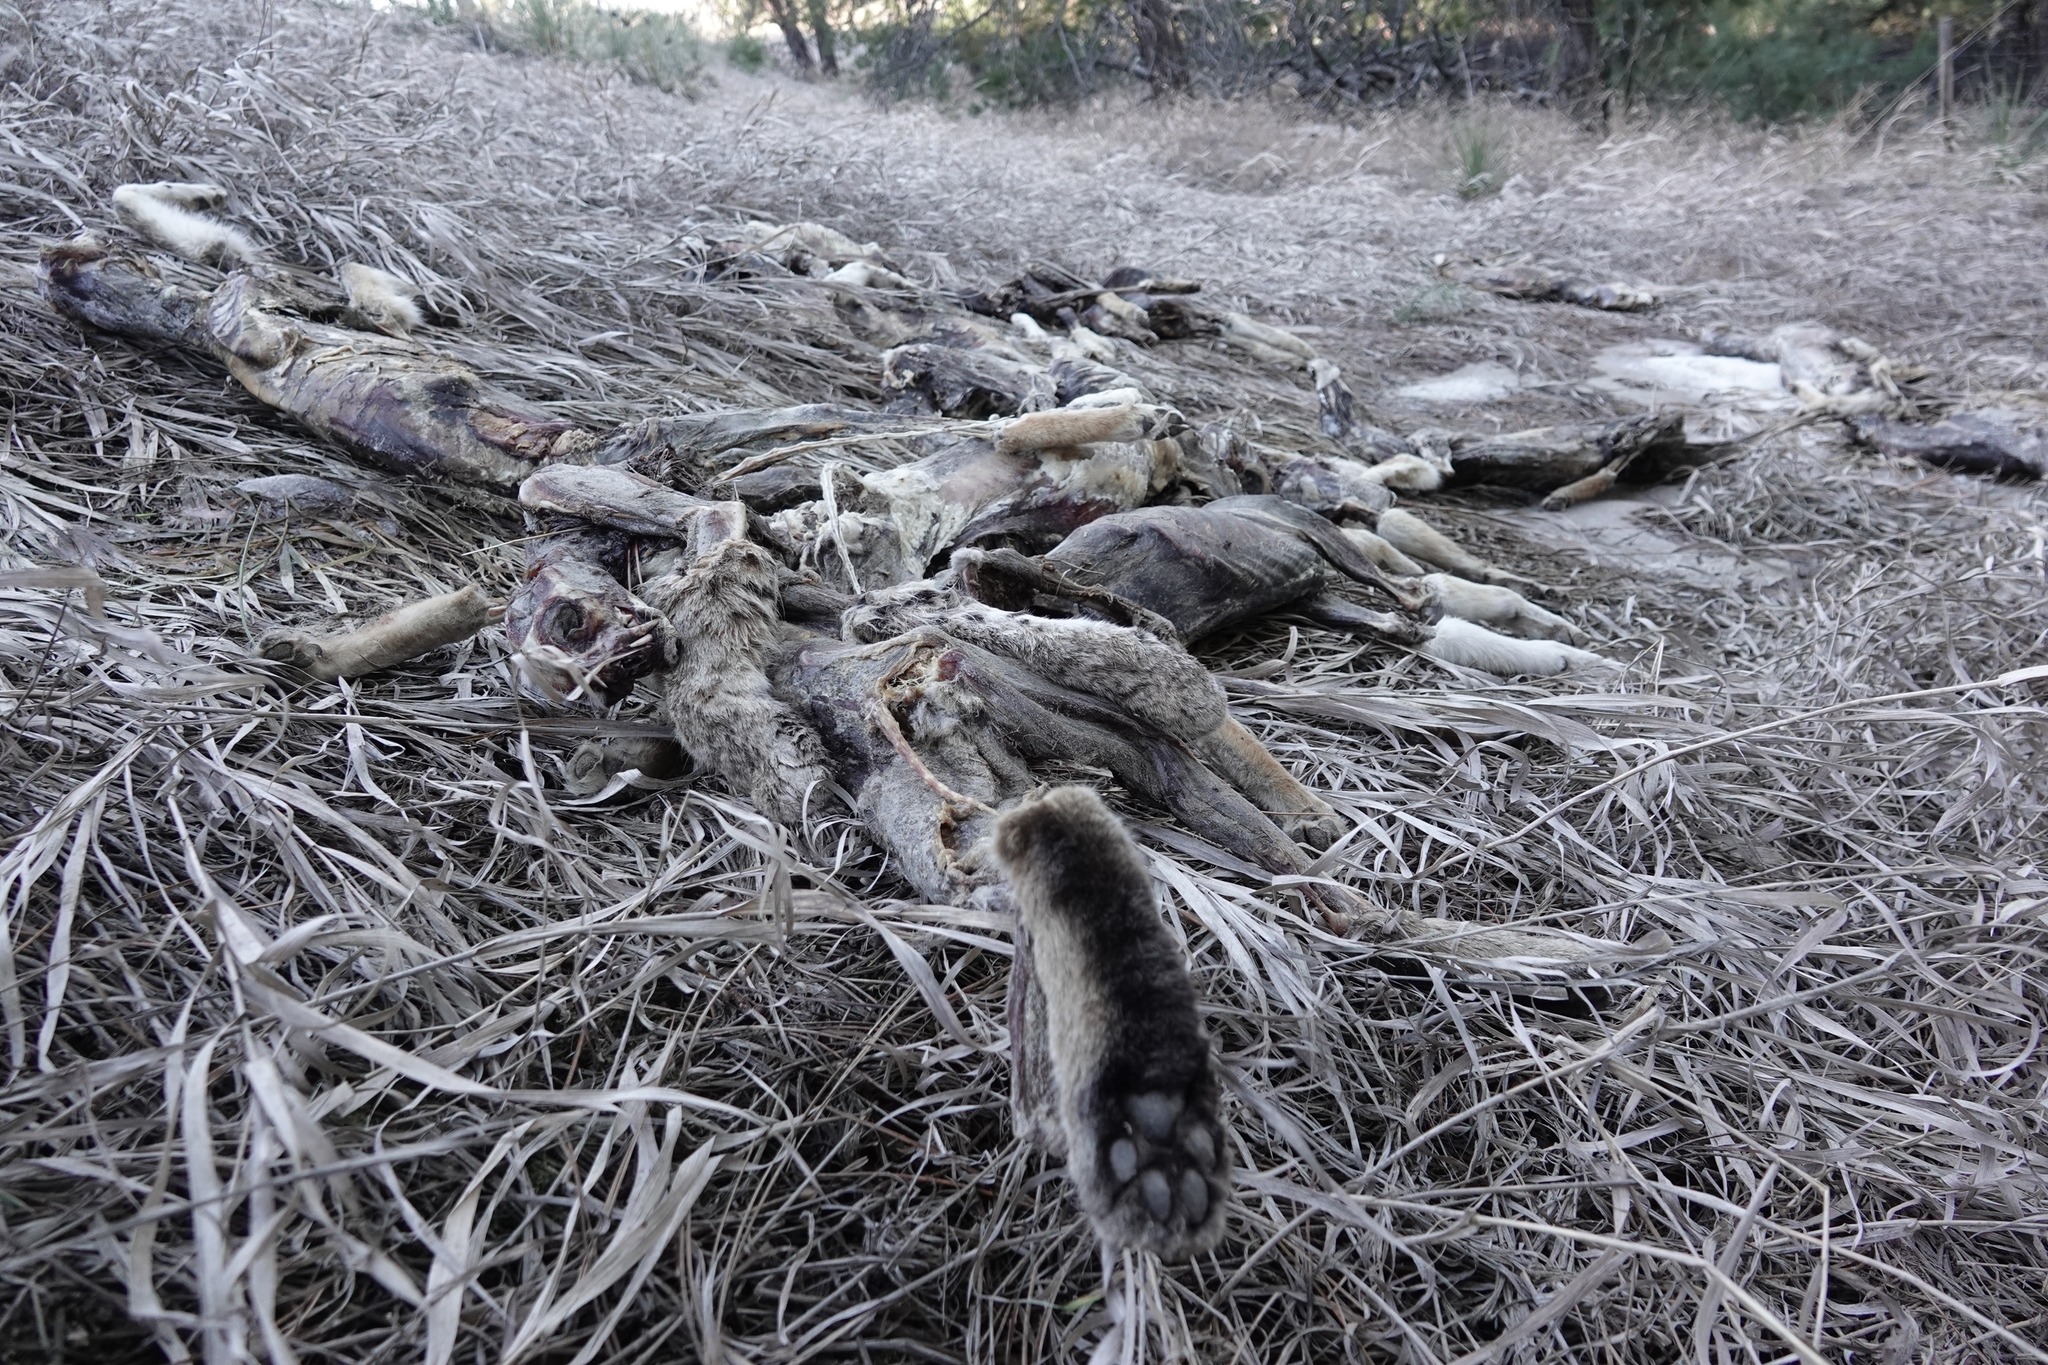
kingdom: Animalia
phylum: Chordata
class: Mammalia
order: Carnivora
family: Canidae
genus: Canis
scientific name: Canis latrans
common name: Coyote
